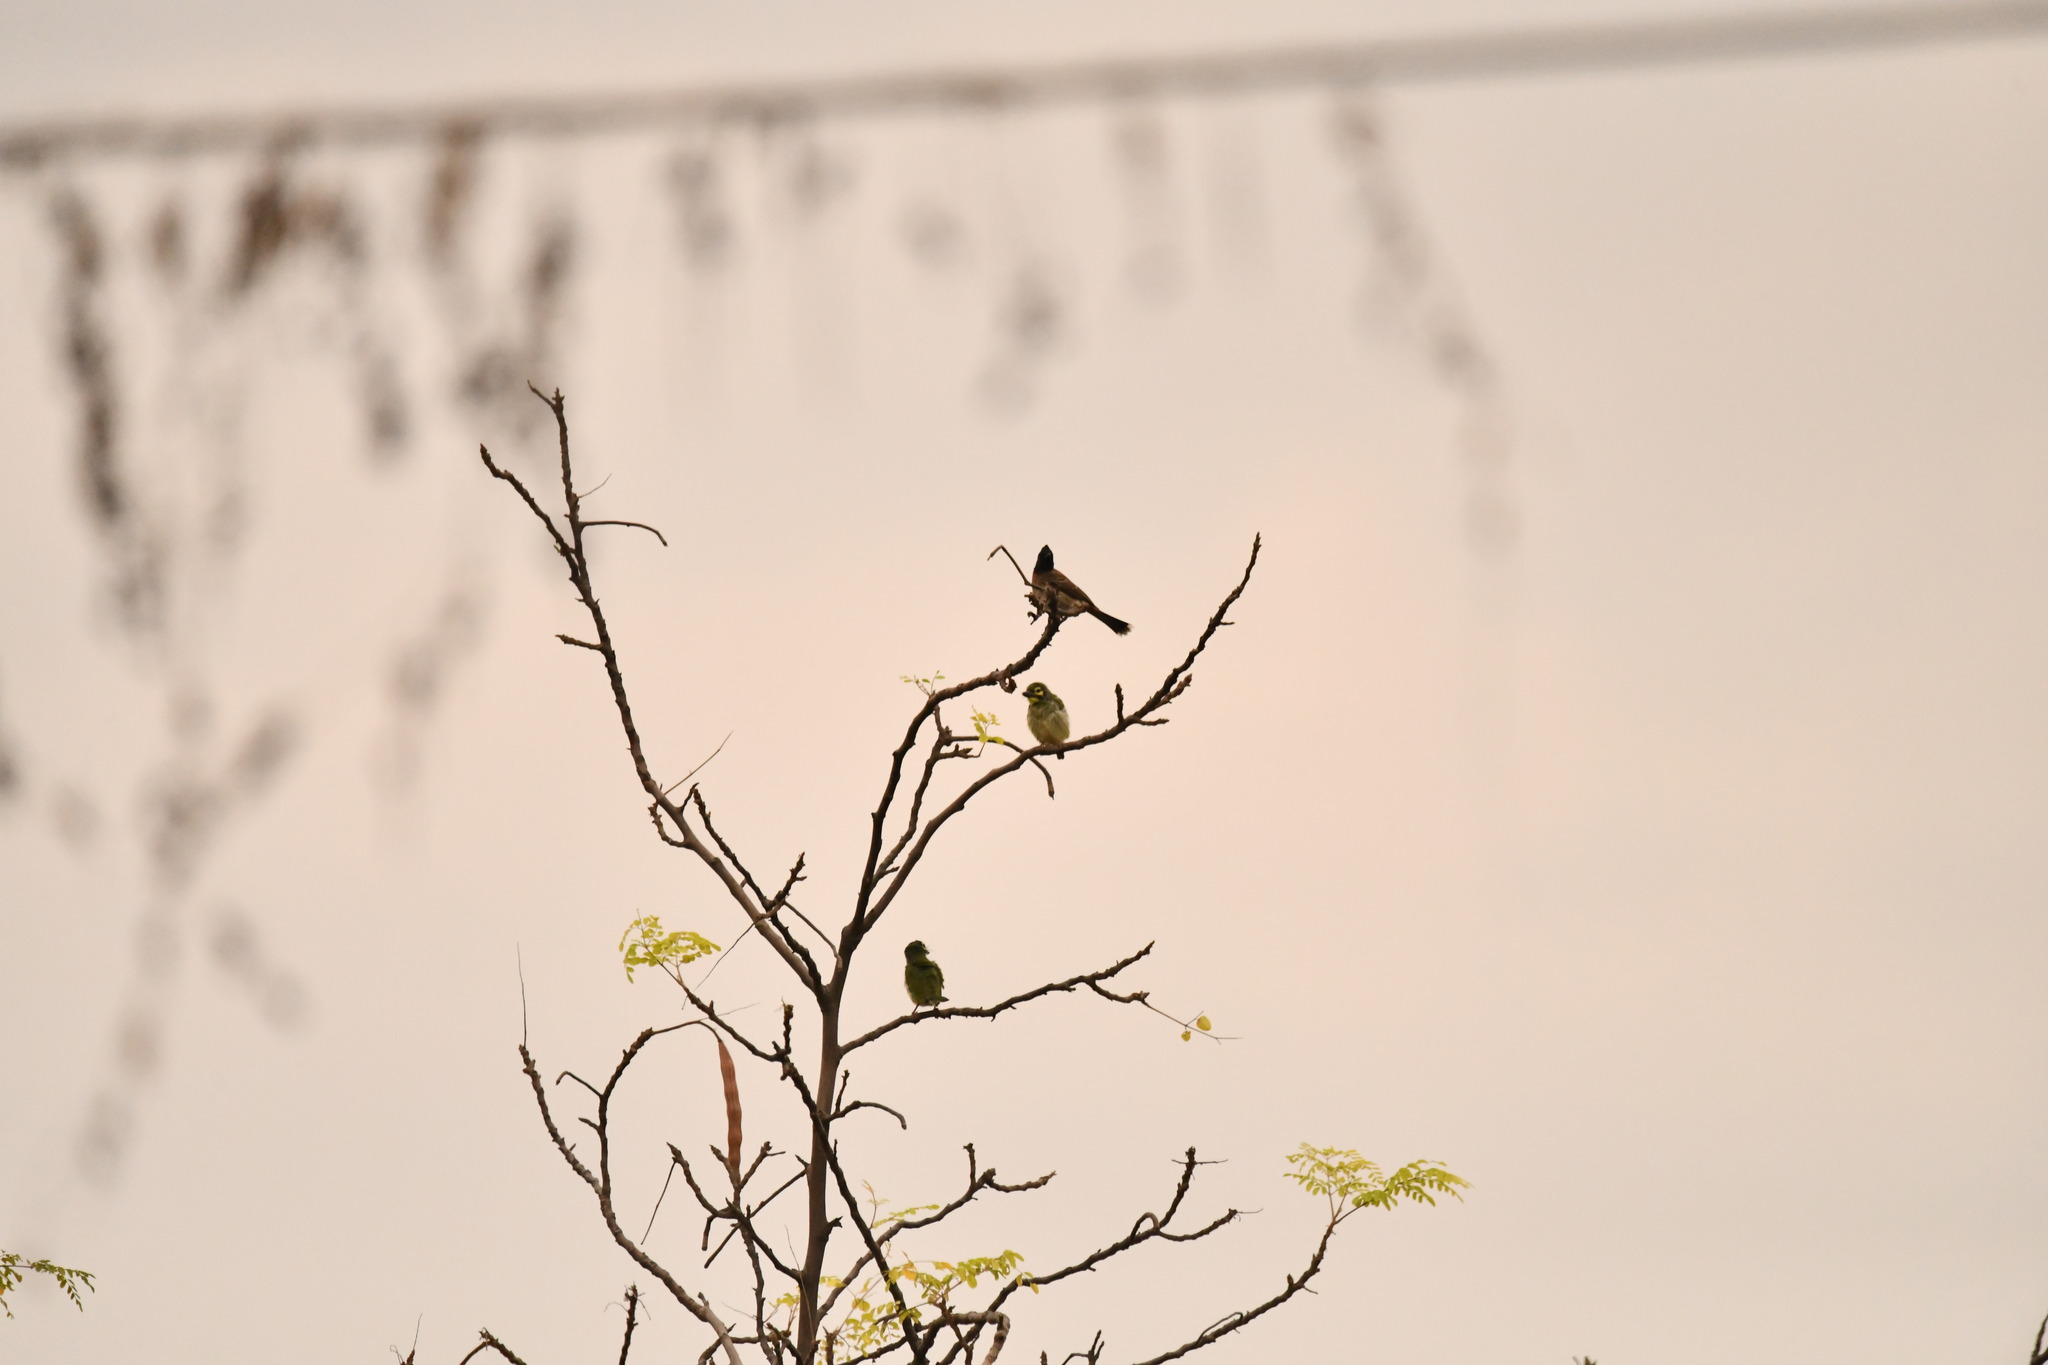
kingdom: Animalia
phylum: Chordata
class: Aves
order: Passeriformes
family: Pycnonotidae
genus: Pycnonotus
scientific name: Pycnonotus cafer
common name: Red-vented bulbul
